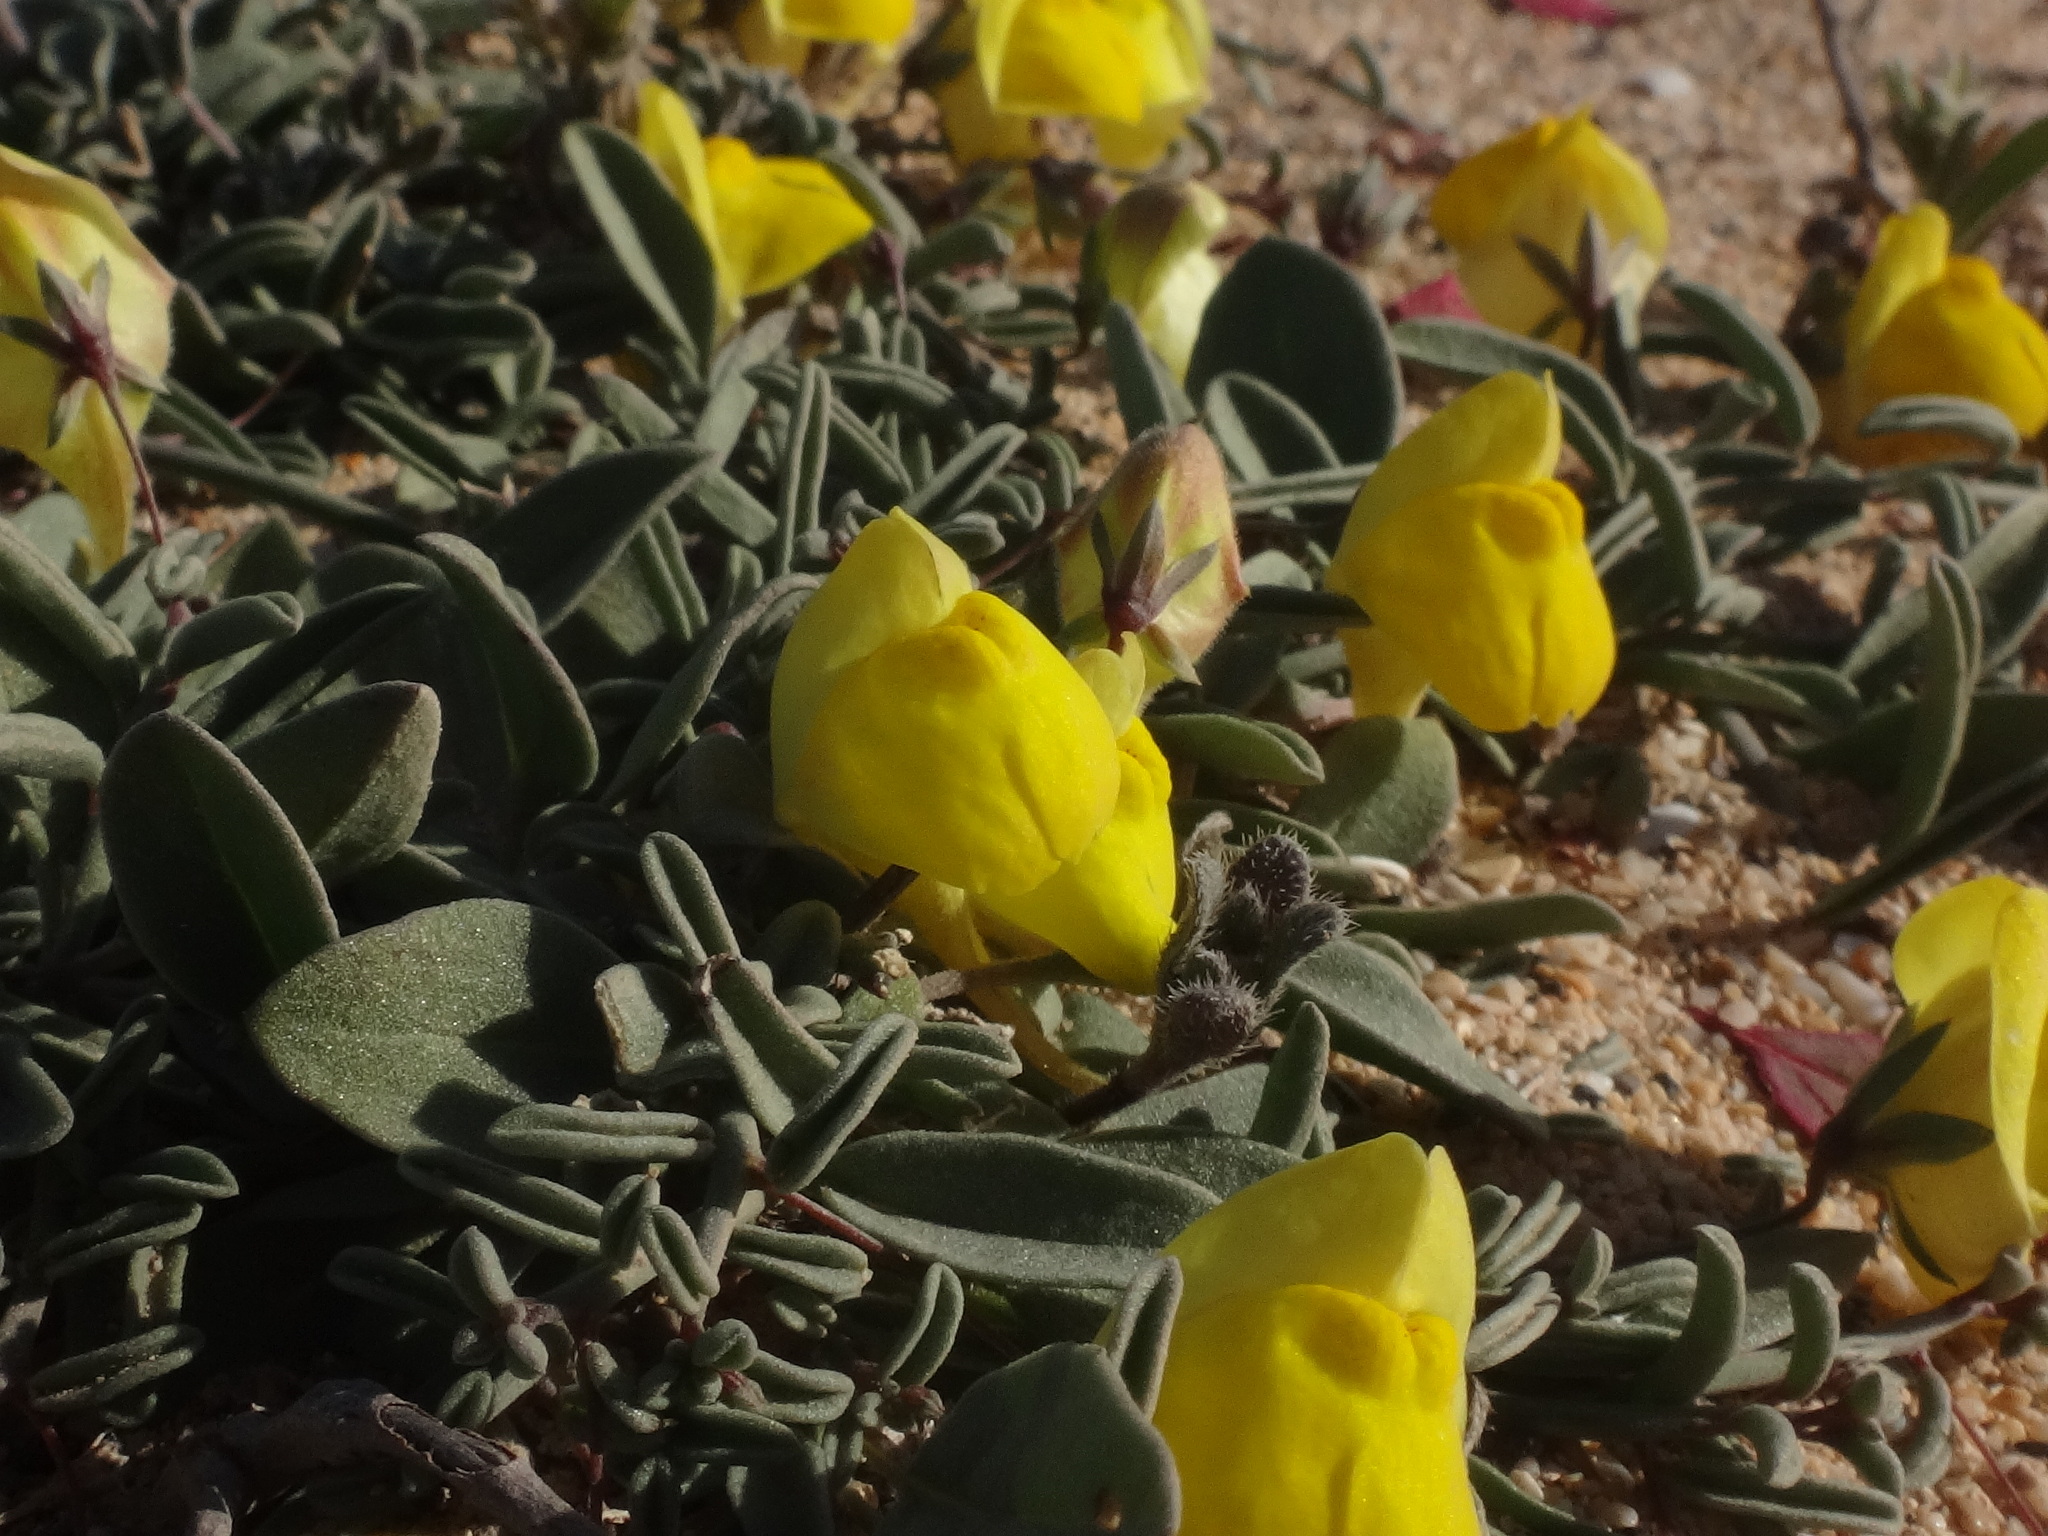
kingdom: Plantae
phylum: Tracheophyta
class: Magnoliopsida
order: Lamiales
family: Plantaginaceae
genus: Nanorrhinum
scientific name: Nanorrhinum heterophyllum
